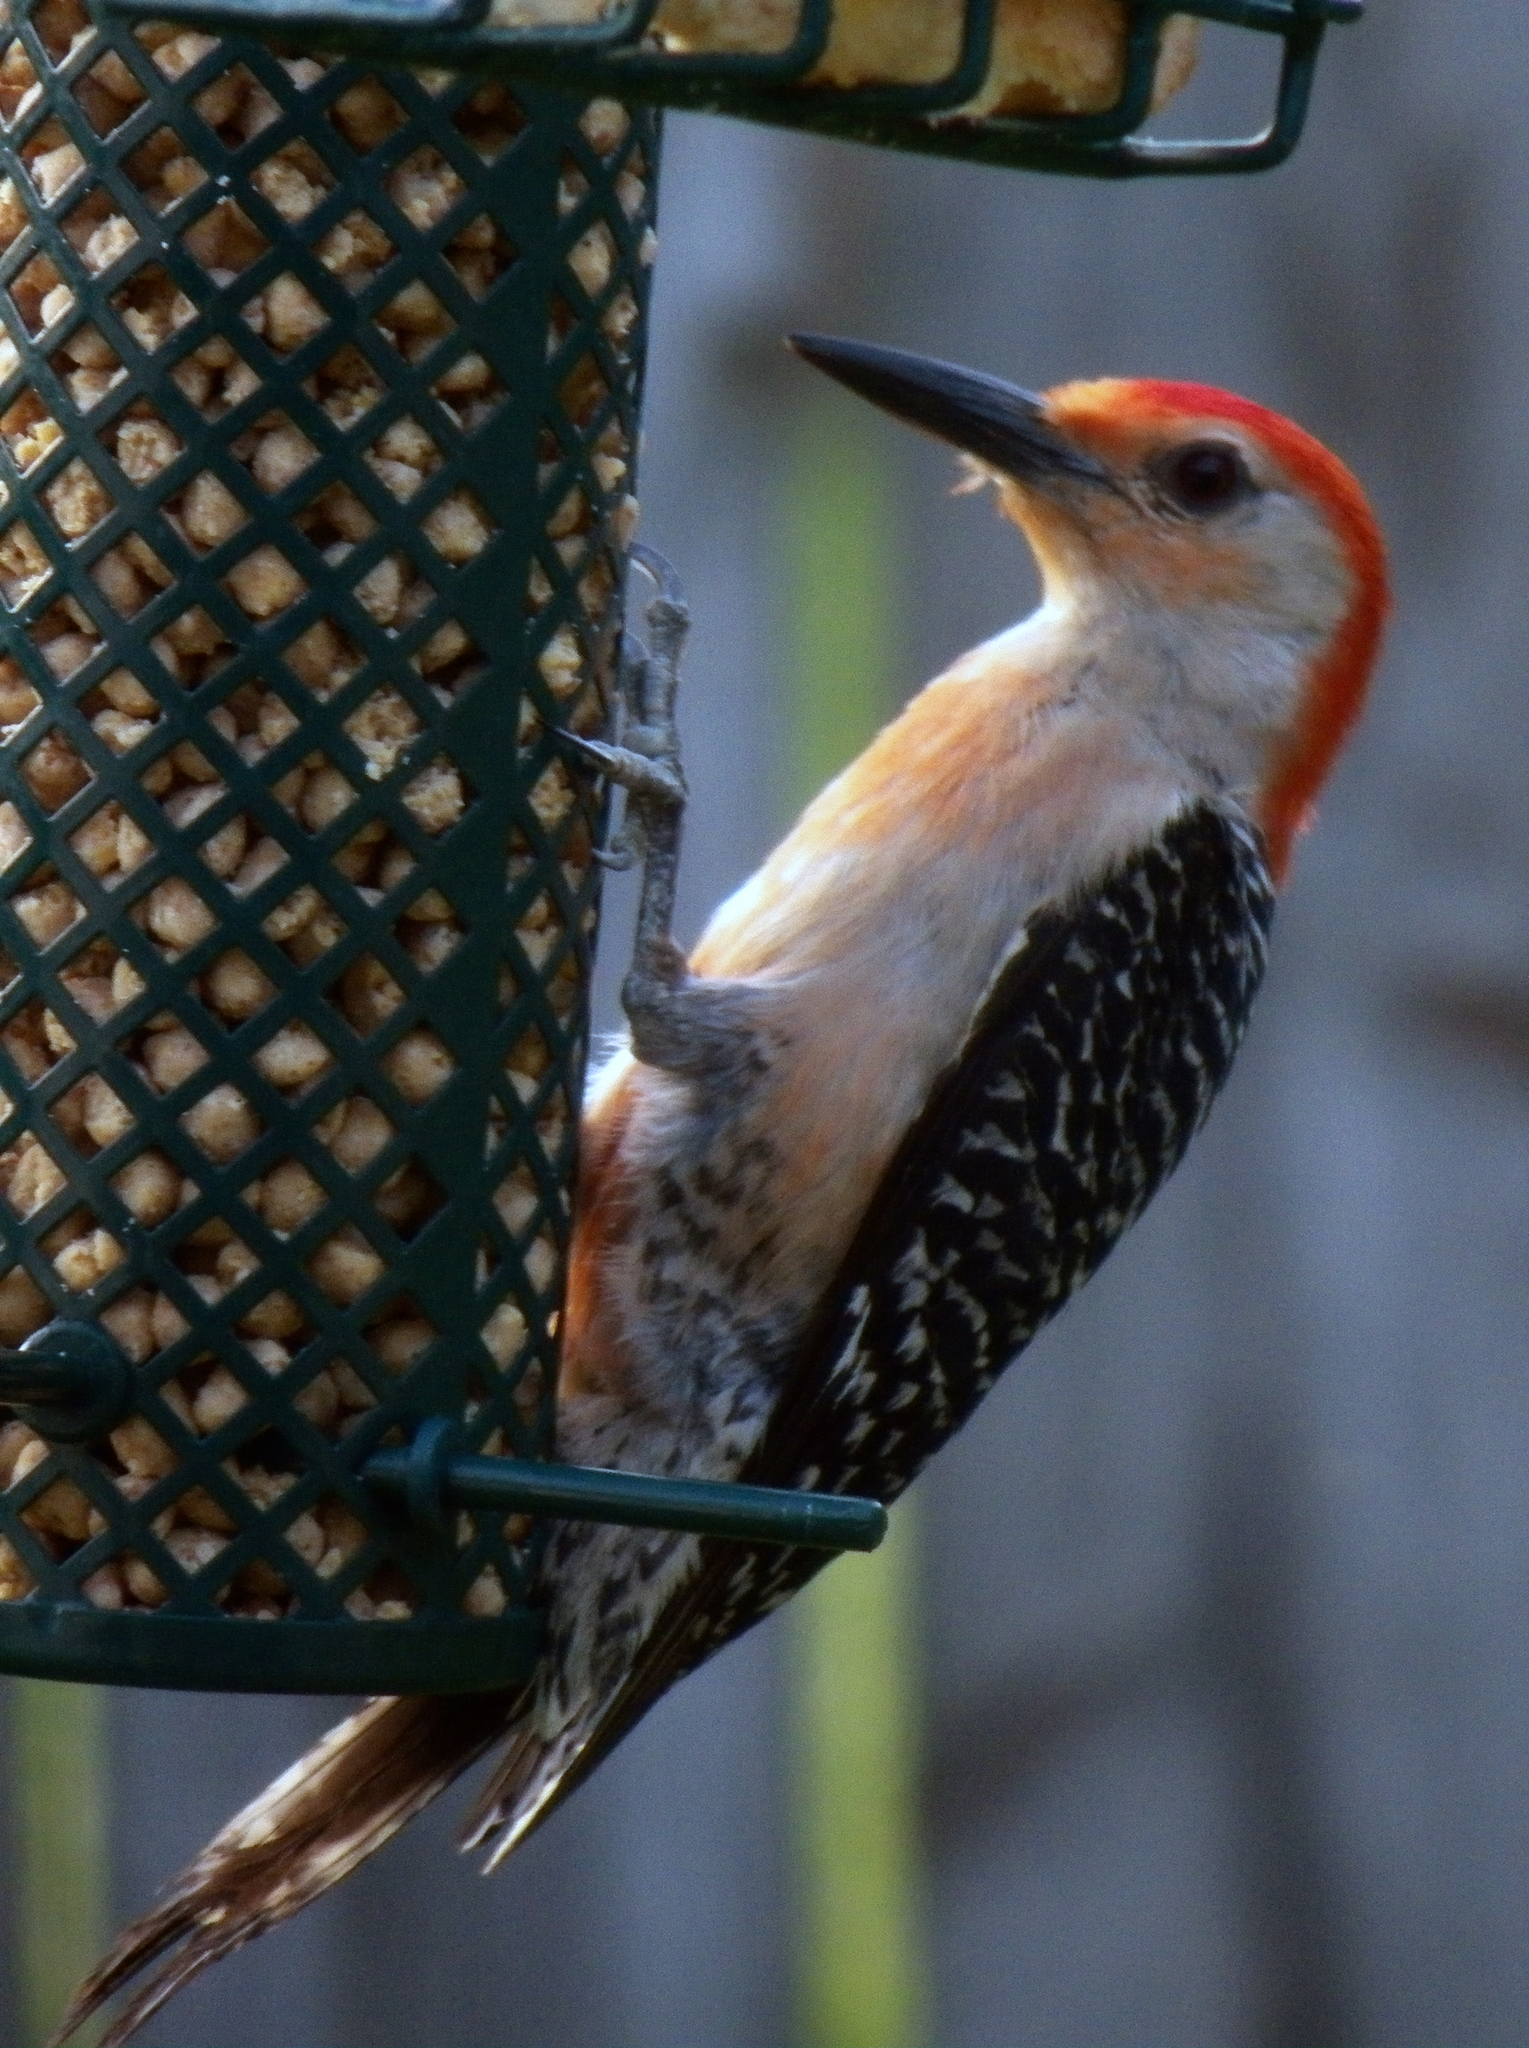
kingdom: Animalia
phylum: Chordata
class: Aves
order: Piciformes
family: Picidae
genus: Melanerpes
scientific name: Melanerpes carolinus
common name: Red-bellied woodpecker
